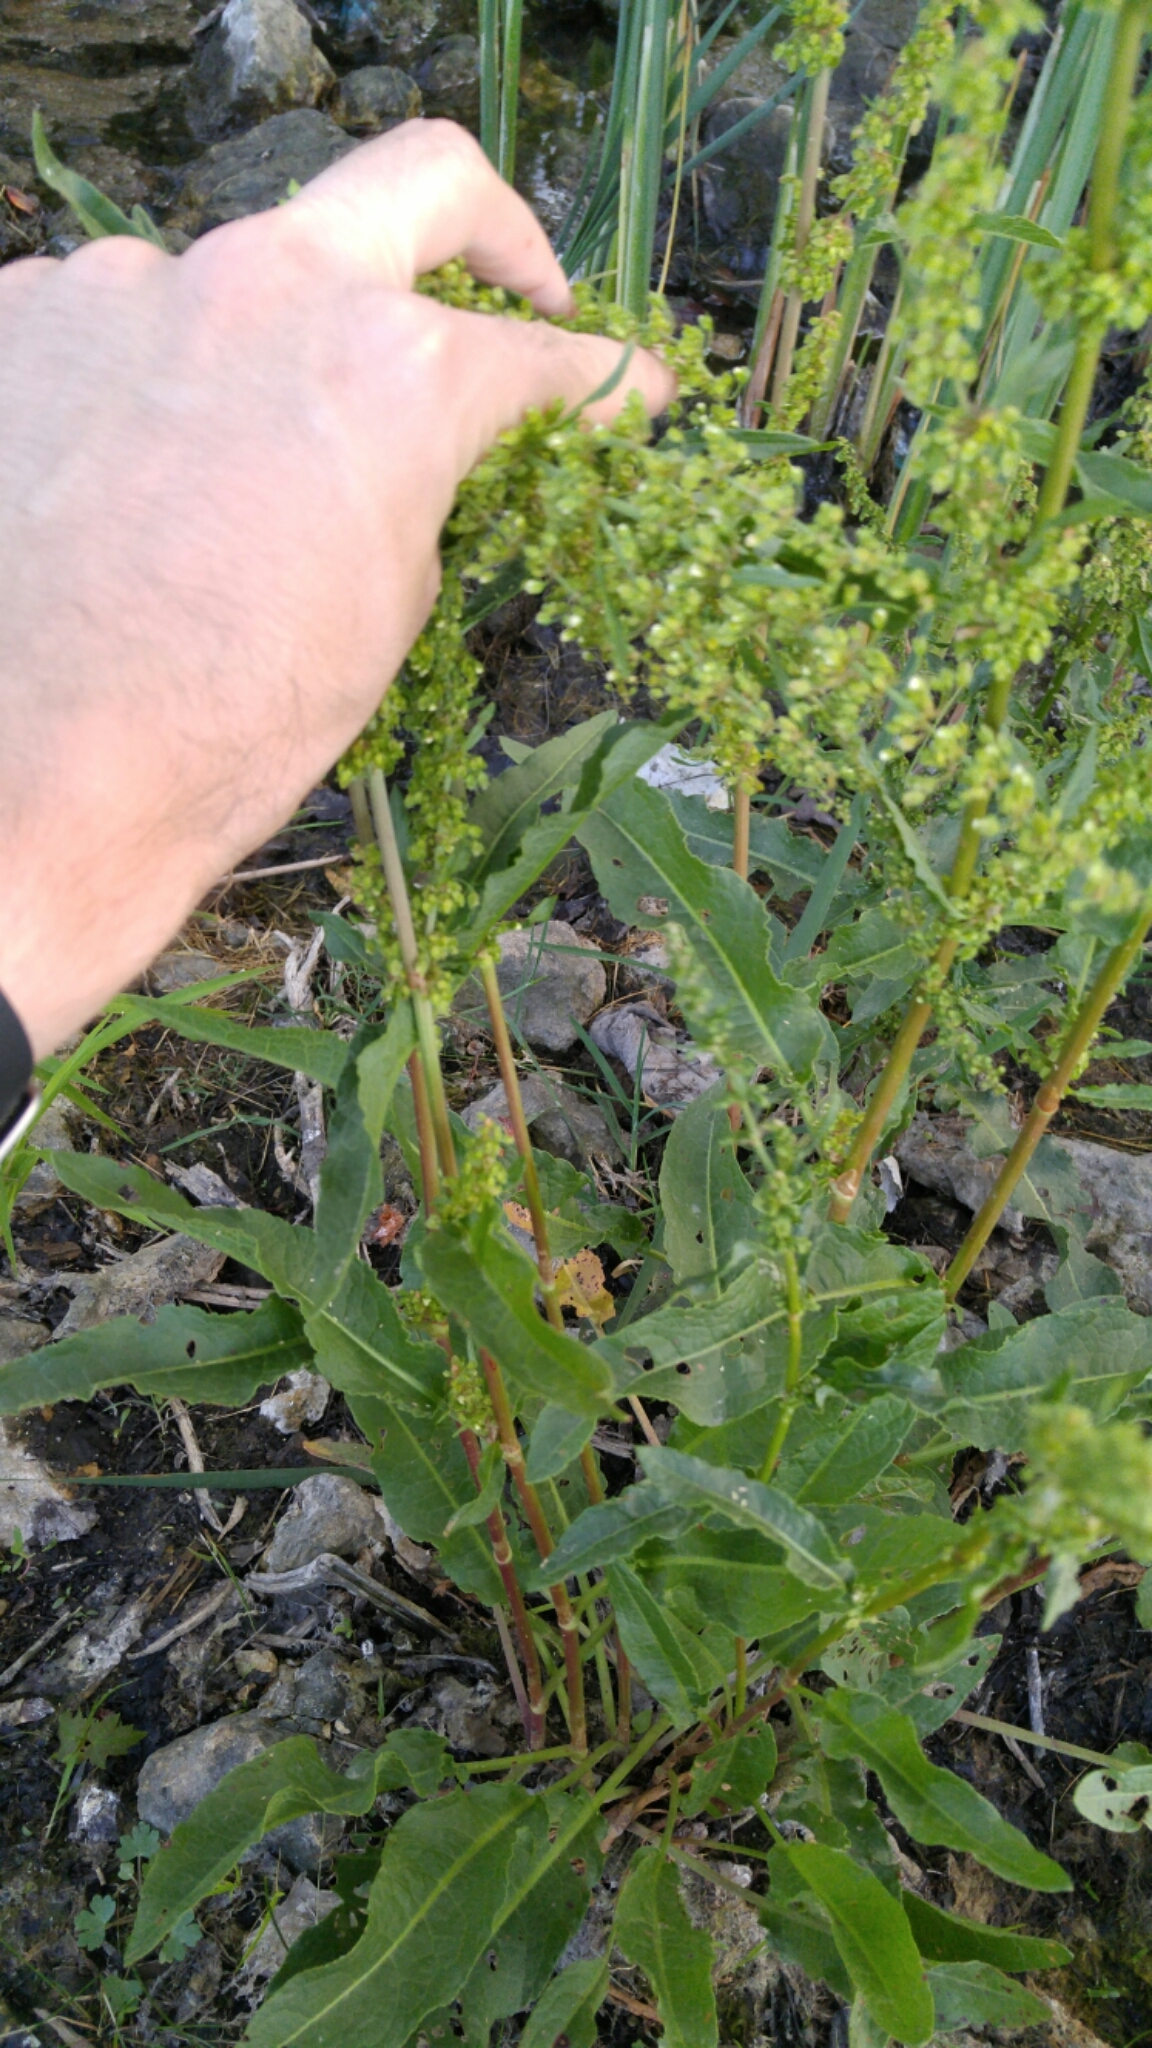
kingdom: Plantae
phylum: Tracheophyta
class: Magnoliopsida
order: Caryophyllales
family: Polygonaceae
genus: Rumex
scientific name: Rumex crispus
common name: Curled dock
